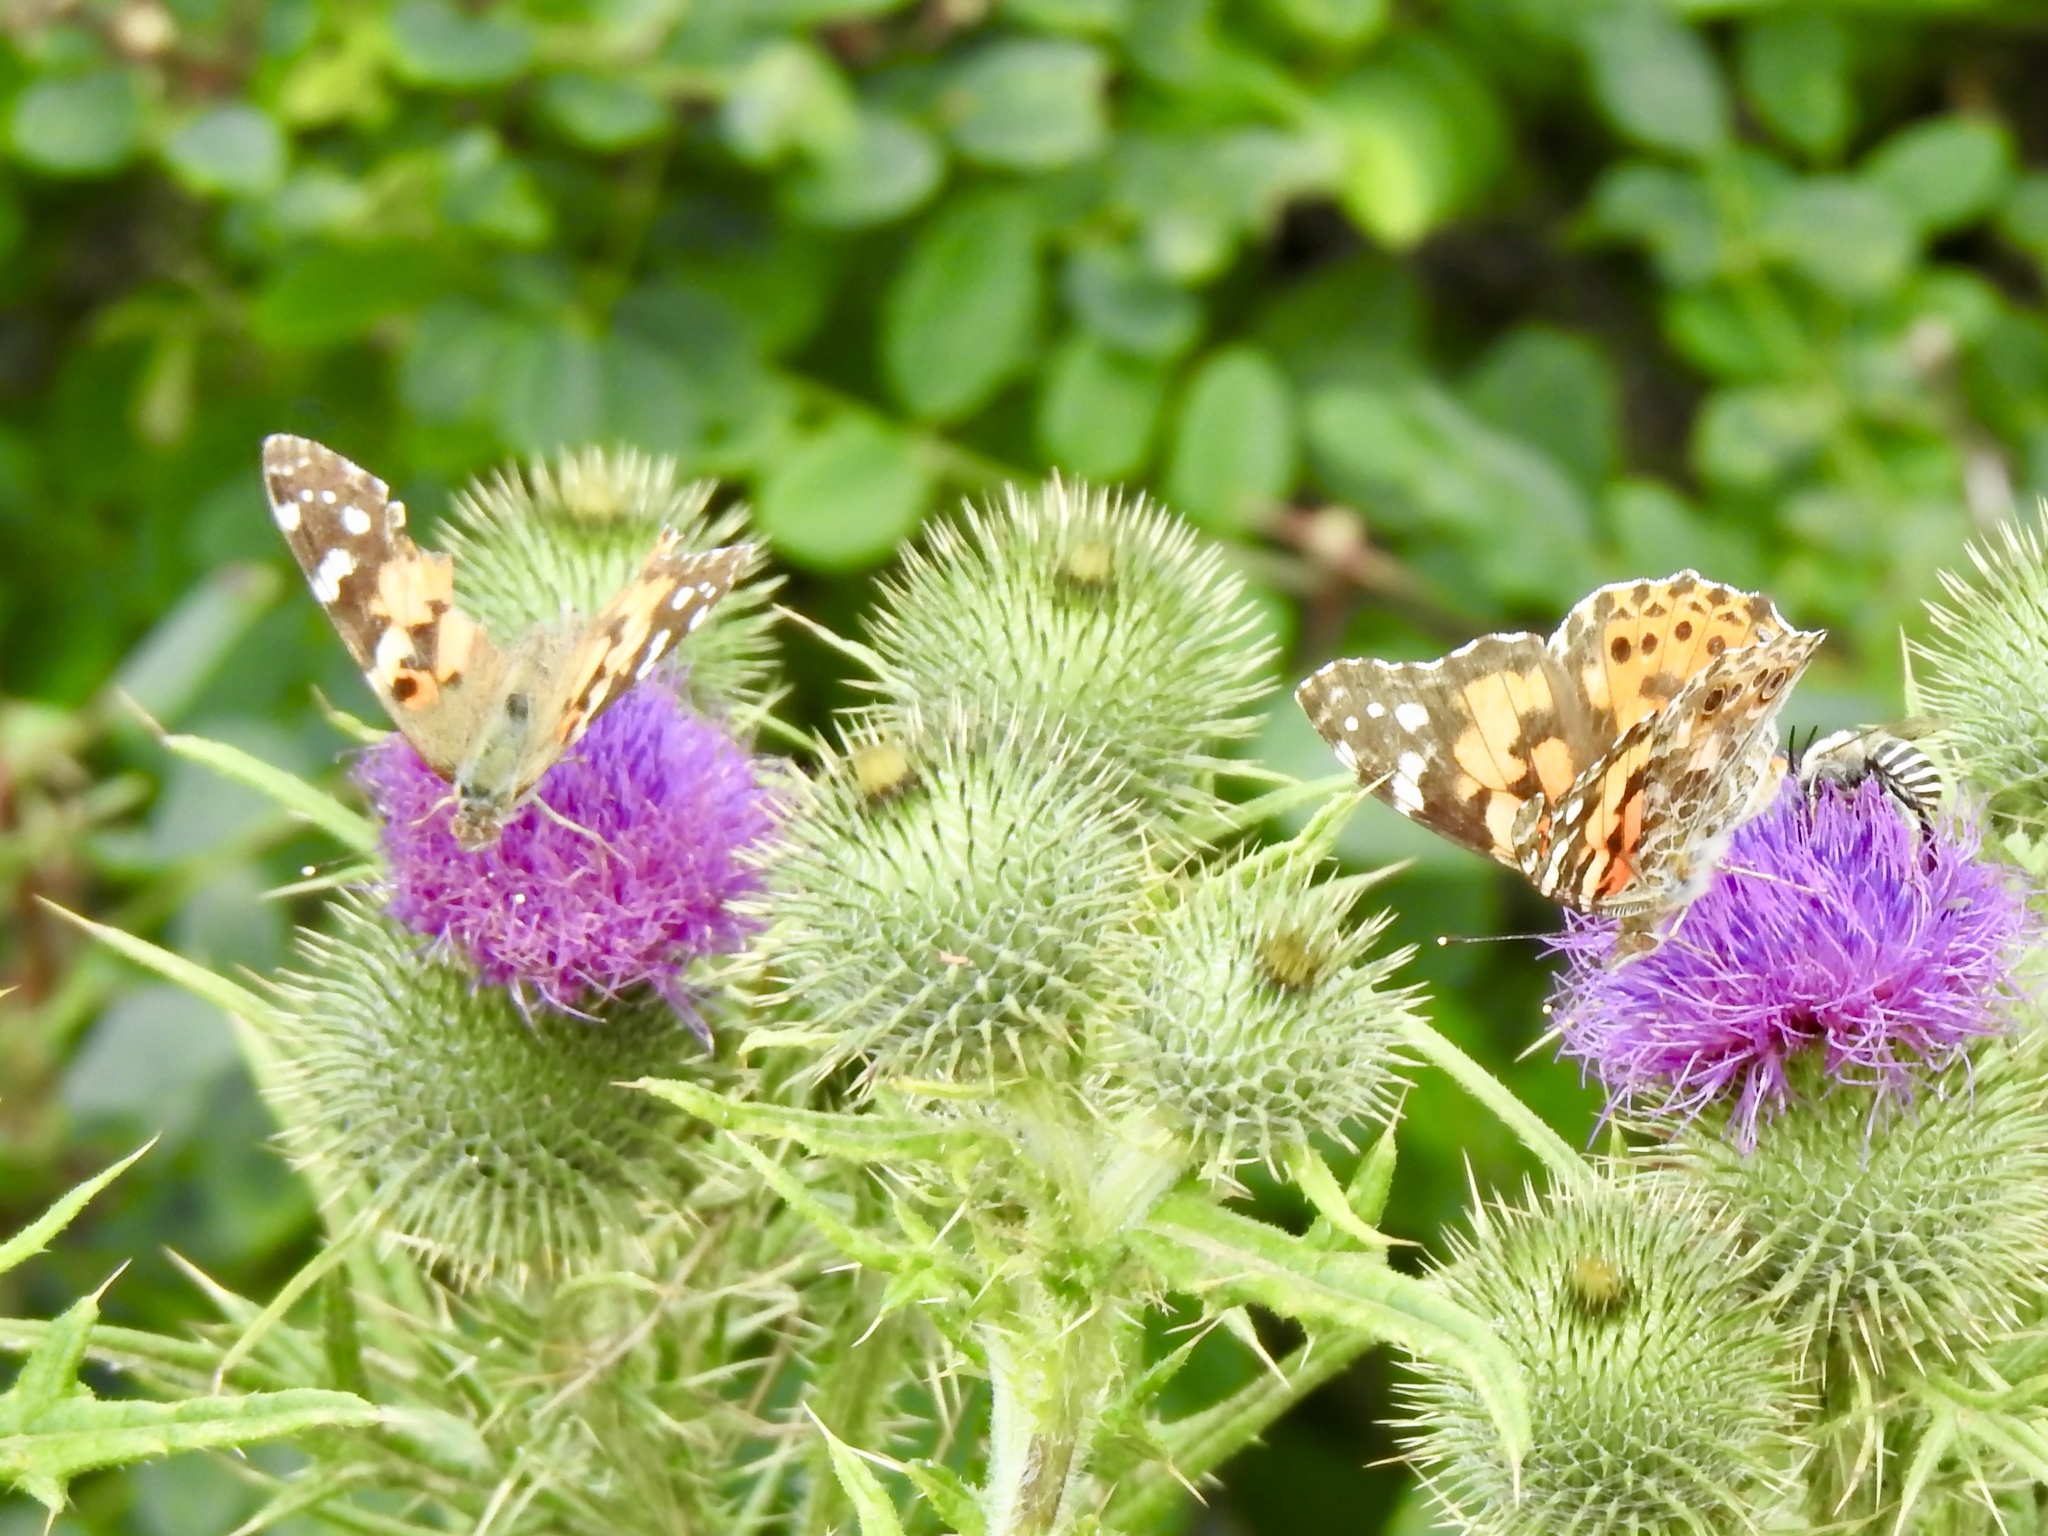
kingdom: Plantae
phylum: Tracheophyta
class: Magnoliopsida
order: Asterales
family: Asteraceae
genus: Cirsium
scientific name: Cirsium vulgare
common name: Bull thistle
